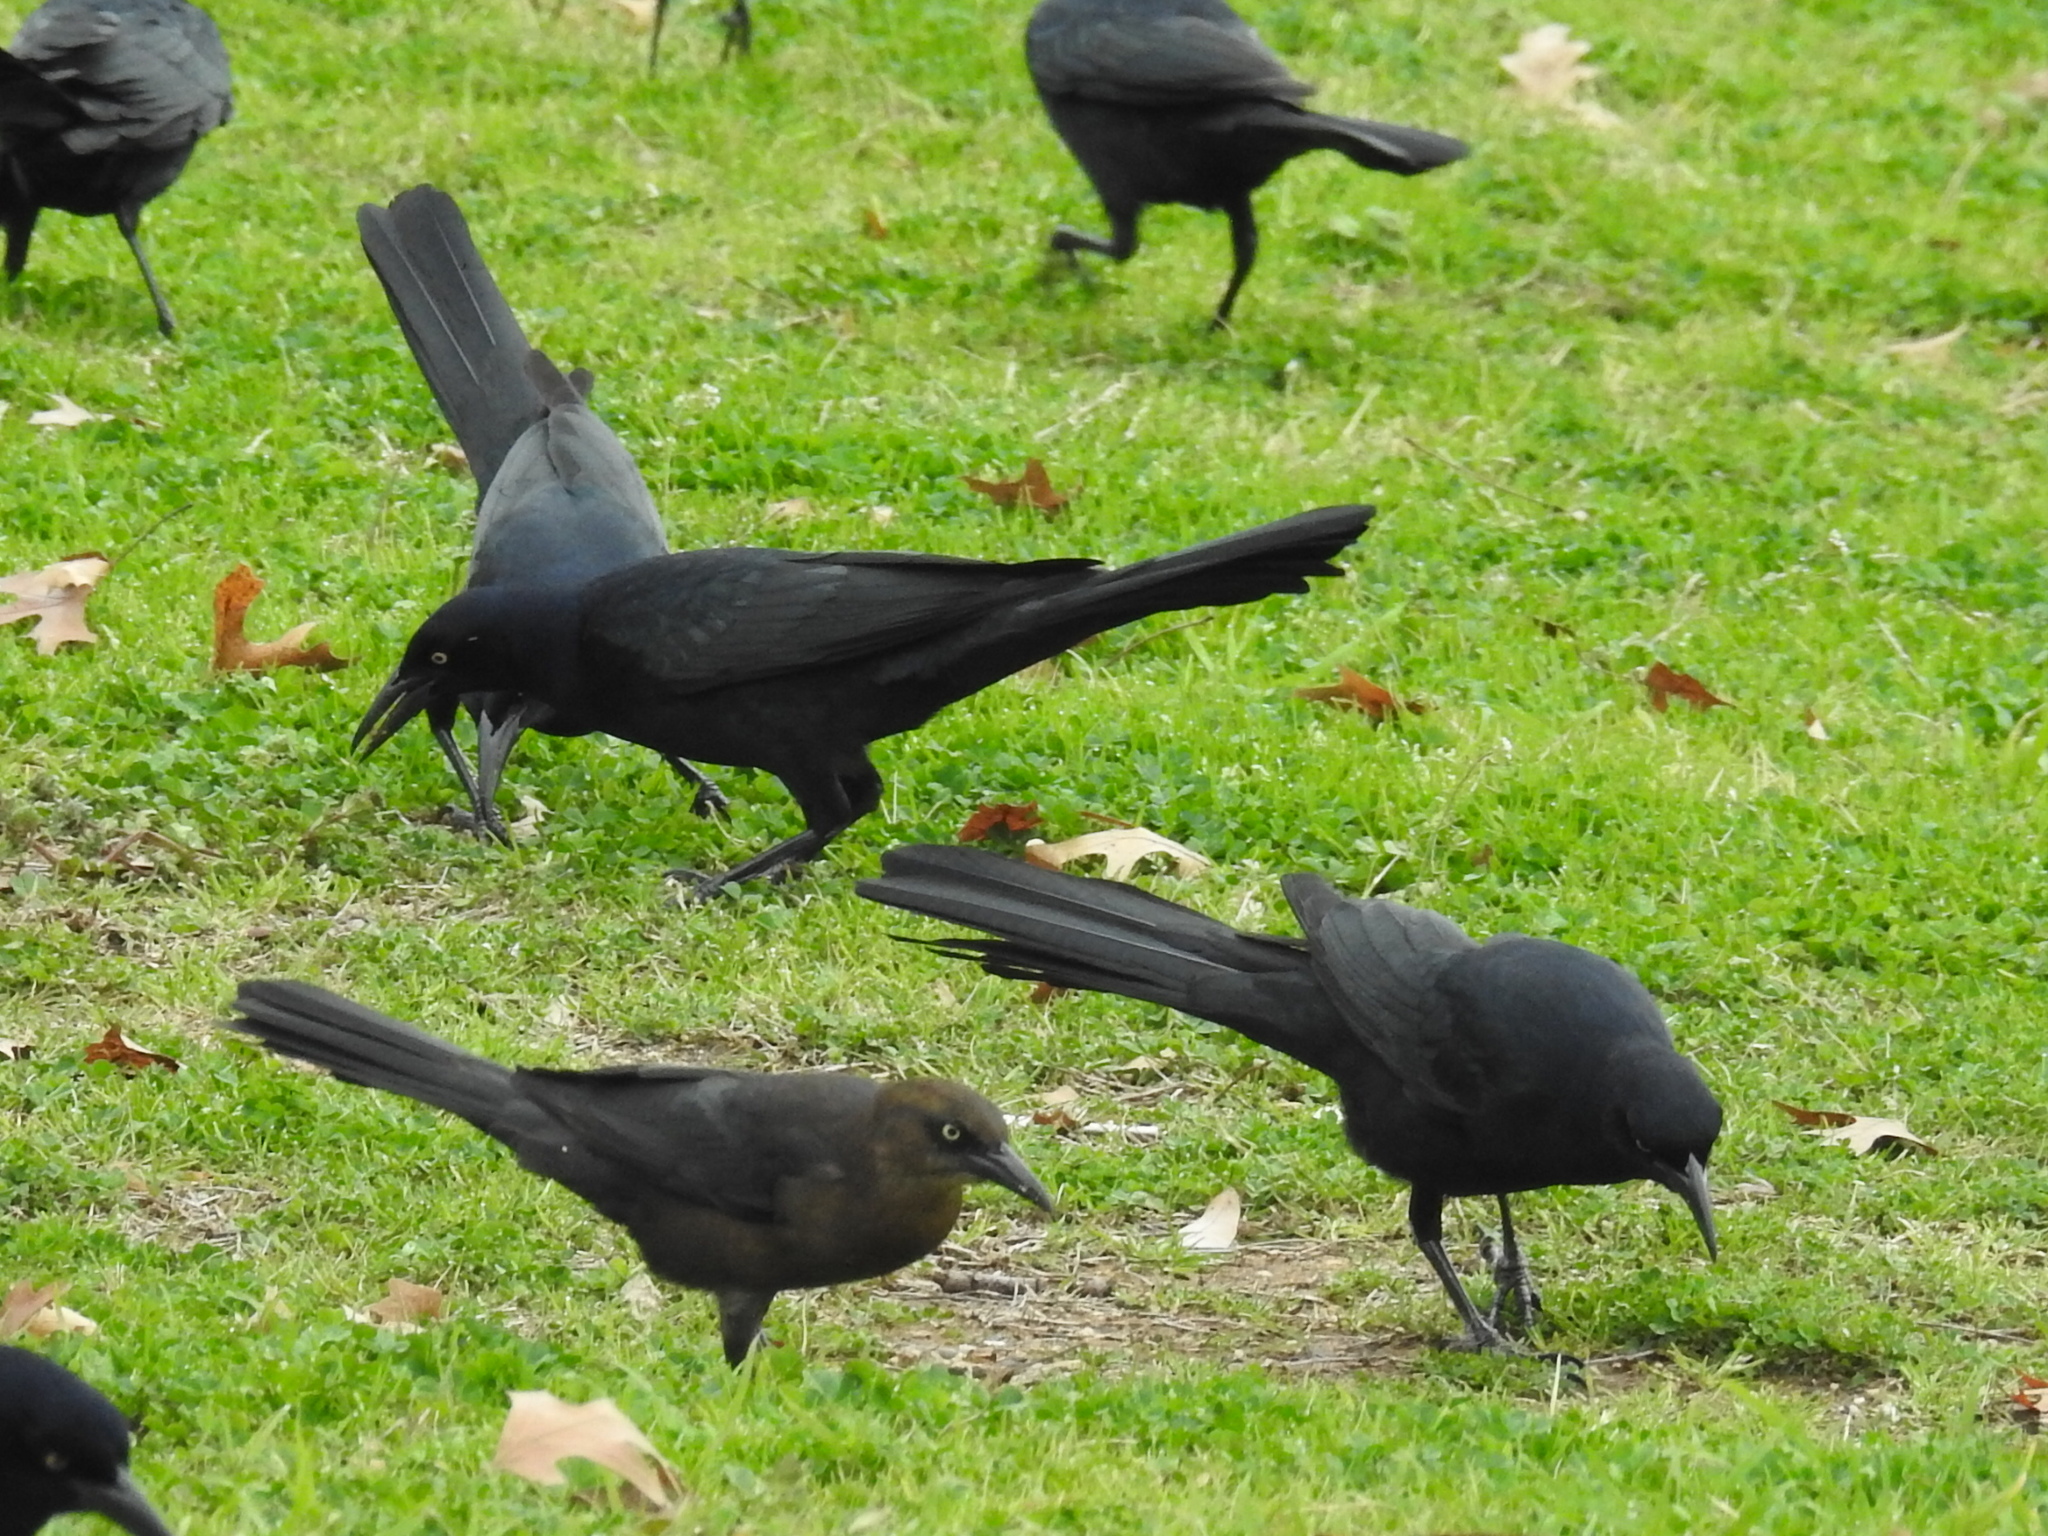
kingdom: Animalia
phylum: Chordata
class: Aves
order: Passeriformes
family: Icteridae
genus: Quiscalus
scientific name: Quiscalus mexicanus
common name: Great-tailed grackle
